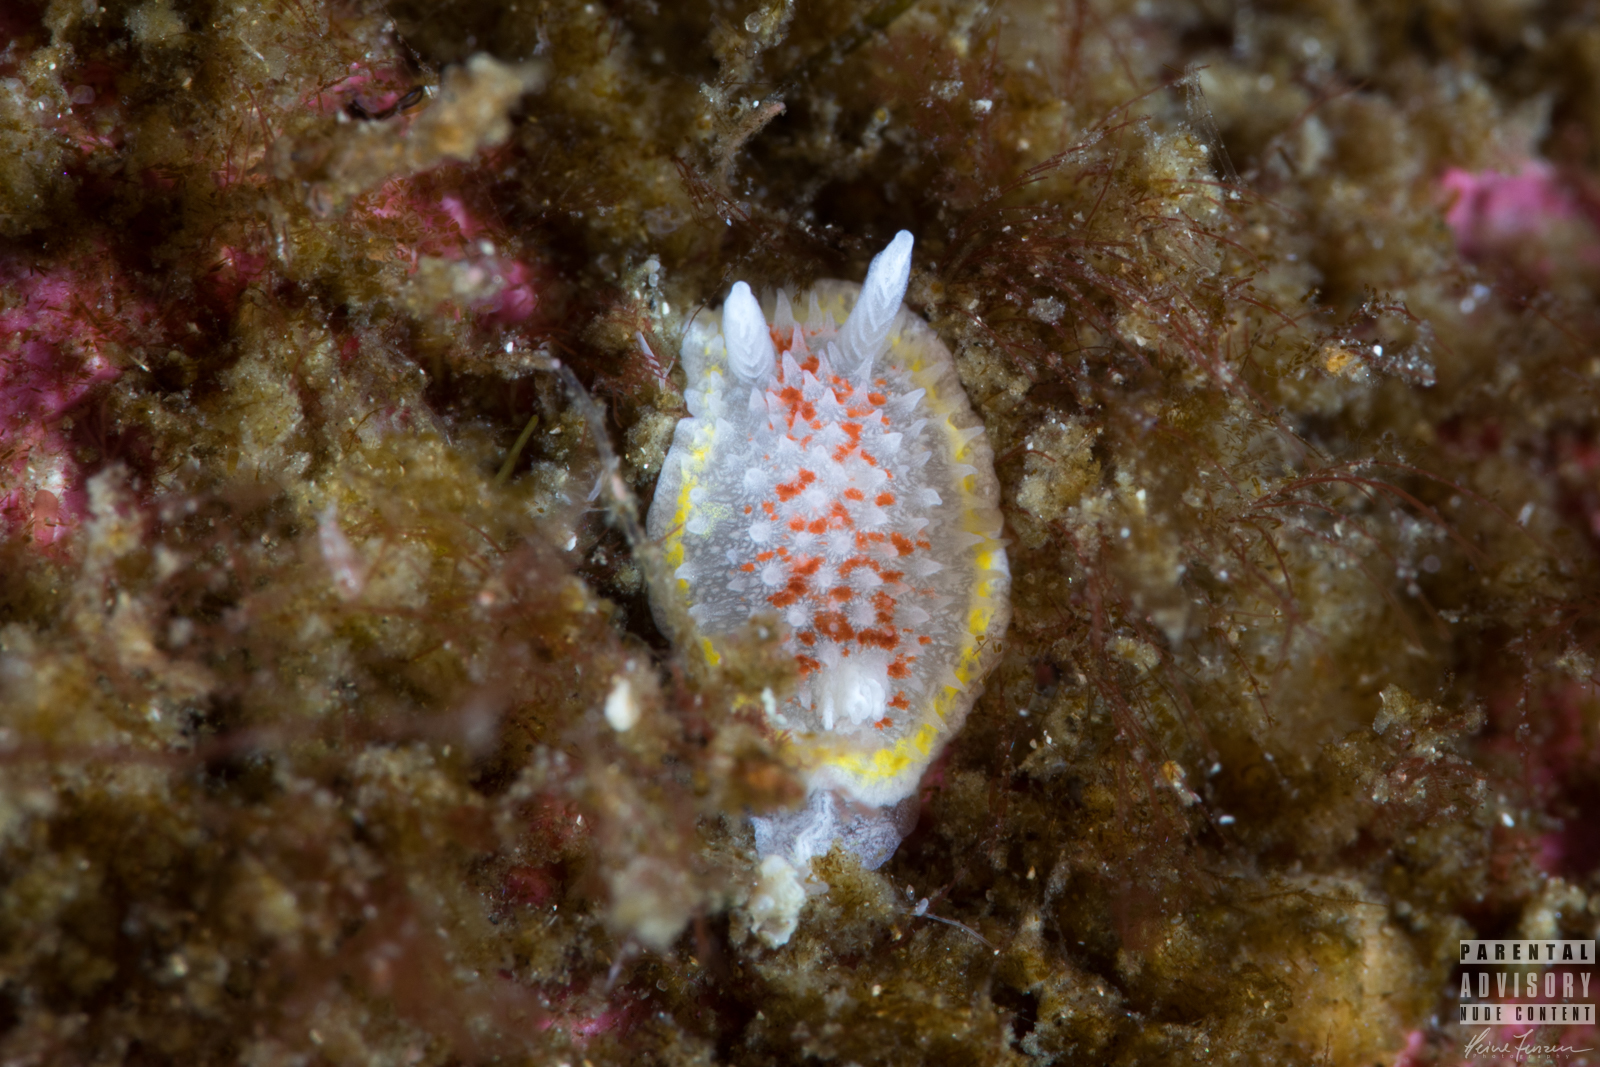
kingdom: Animalia
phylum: Mollusca
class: Gastropoda
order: Nudibranchia
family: Calycidorididae
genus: Diaphorodoris
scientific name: Diaphorodoris luteocincta
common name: Fried egg nudibranch
